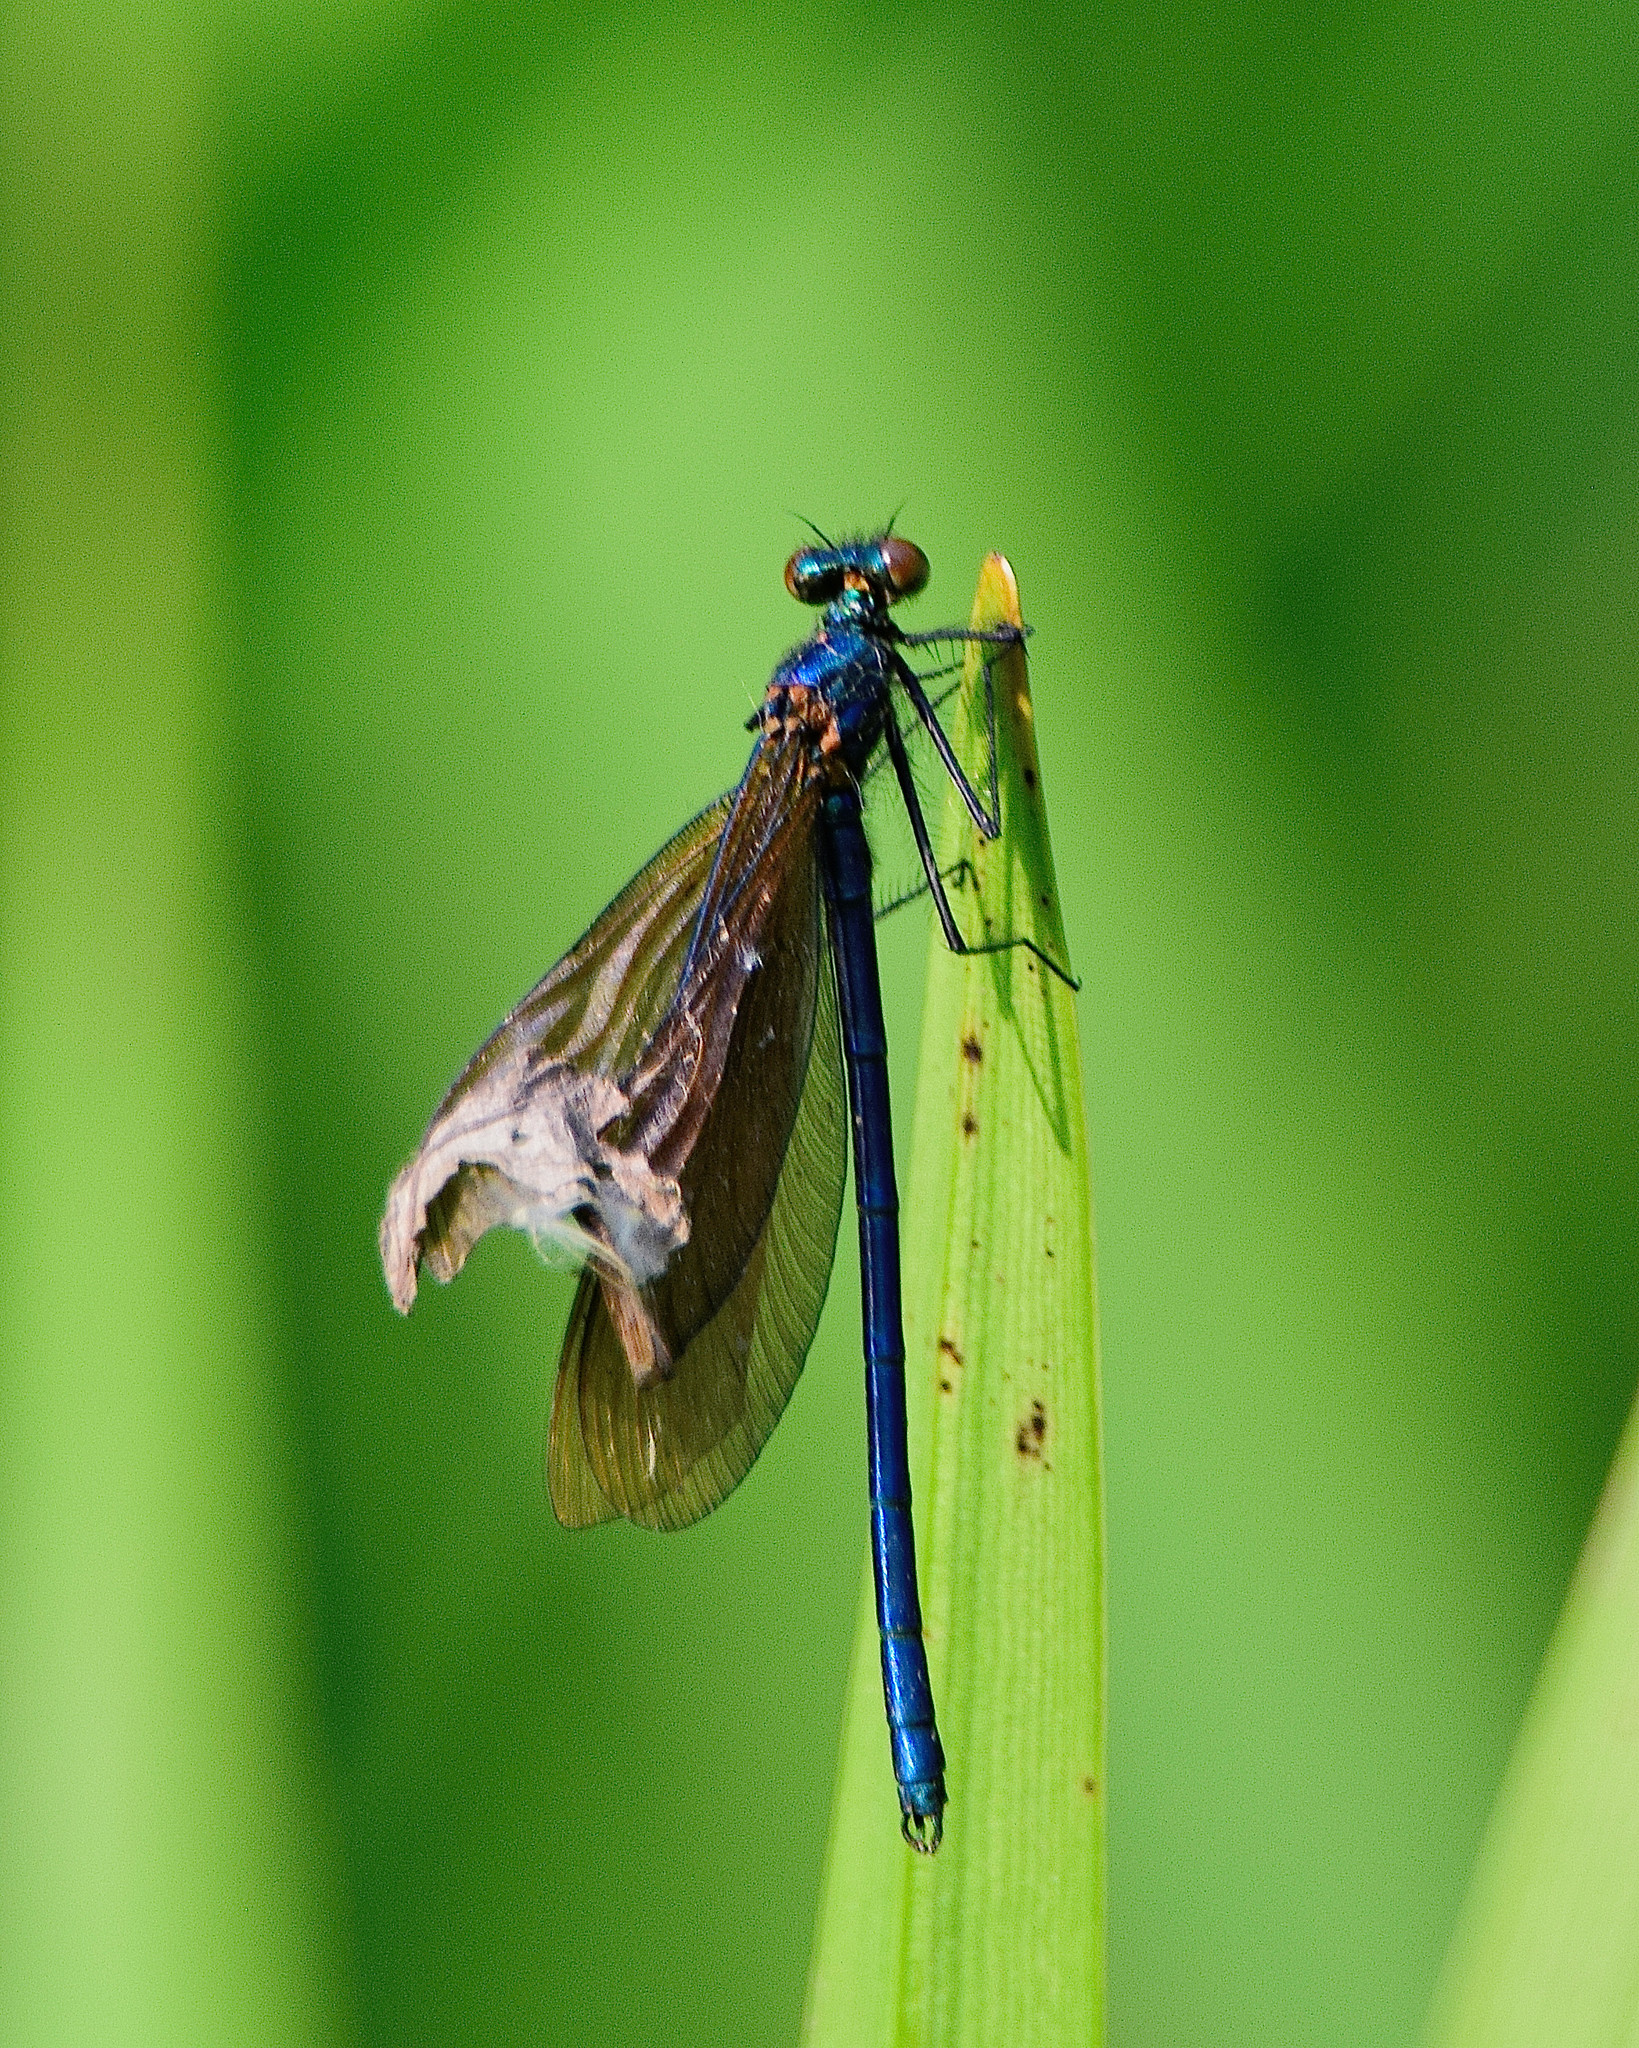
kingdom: Animalia
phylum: Arthropoda
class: Insecta
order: Odonata
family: Calopterygidae
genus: Calopteryx
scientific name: Calopteryx virgo
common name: Beautiful demoiselle
